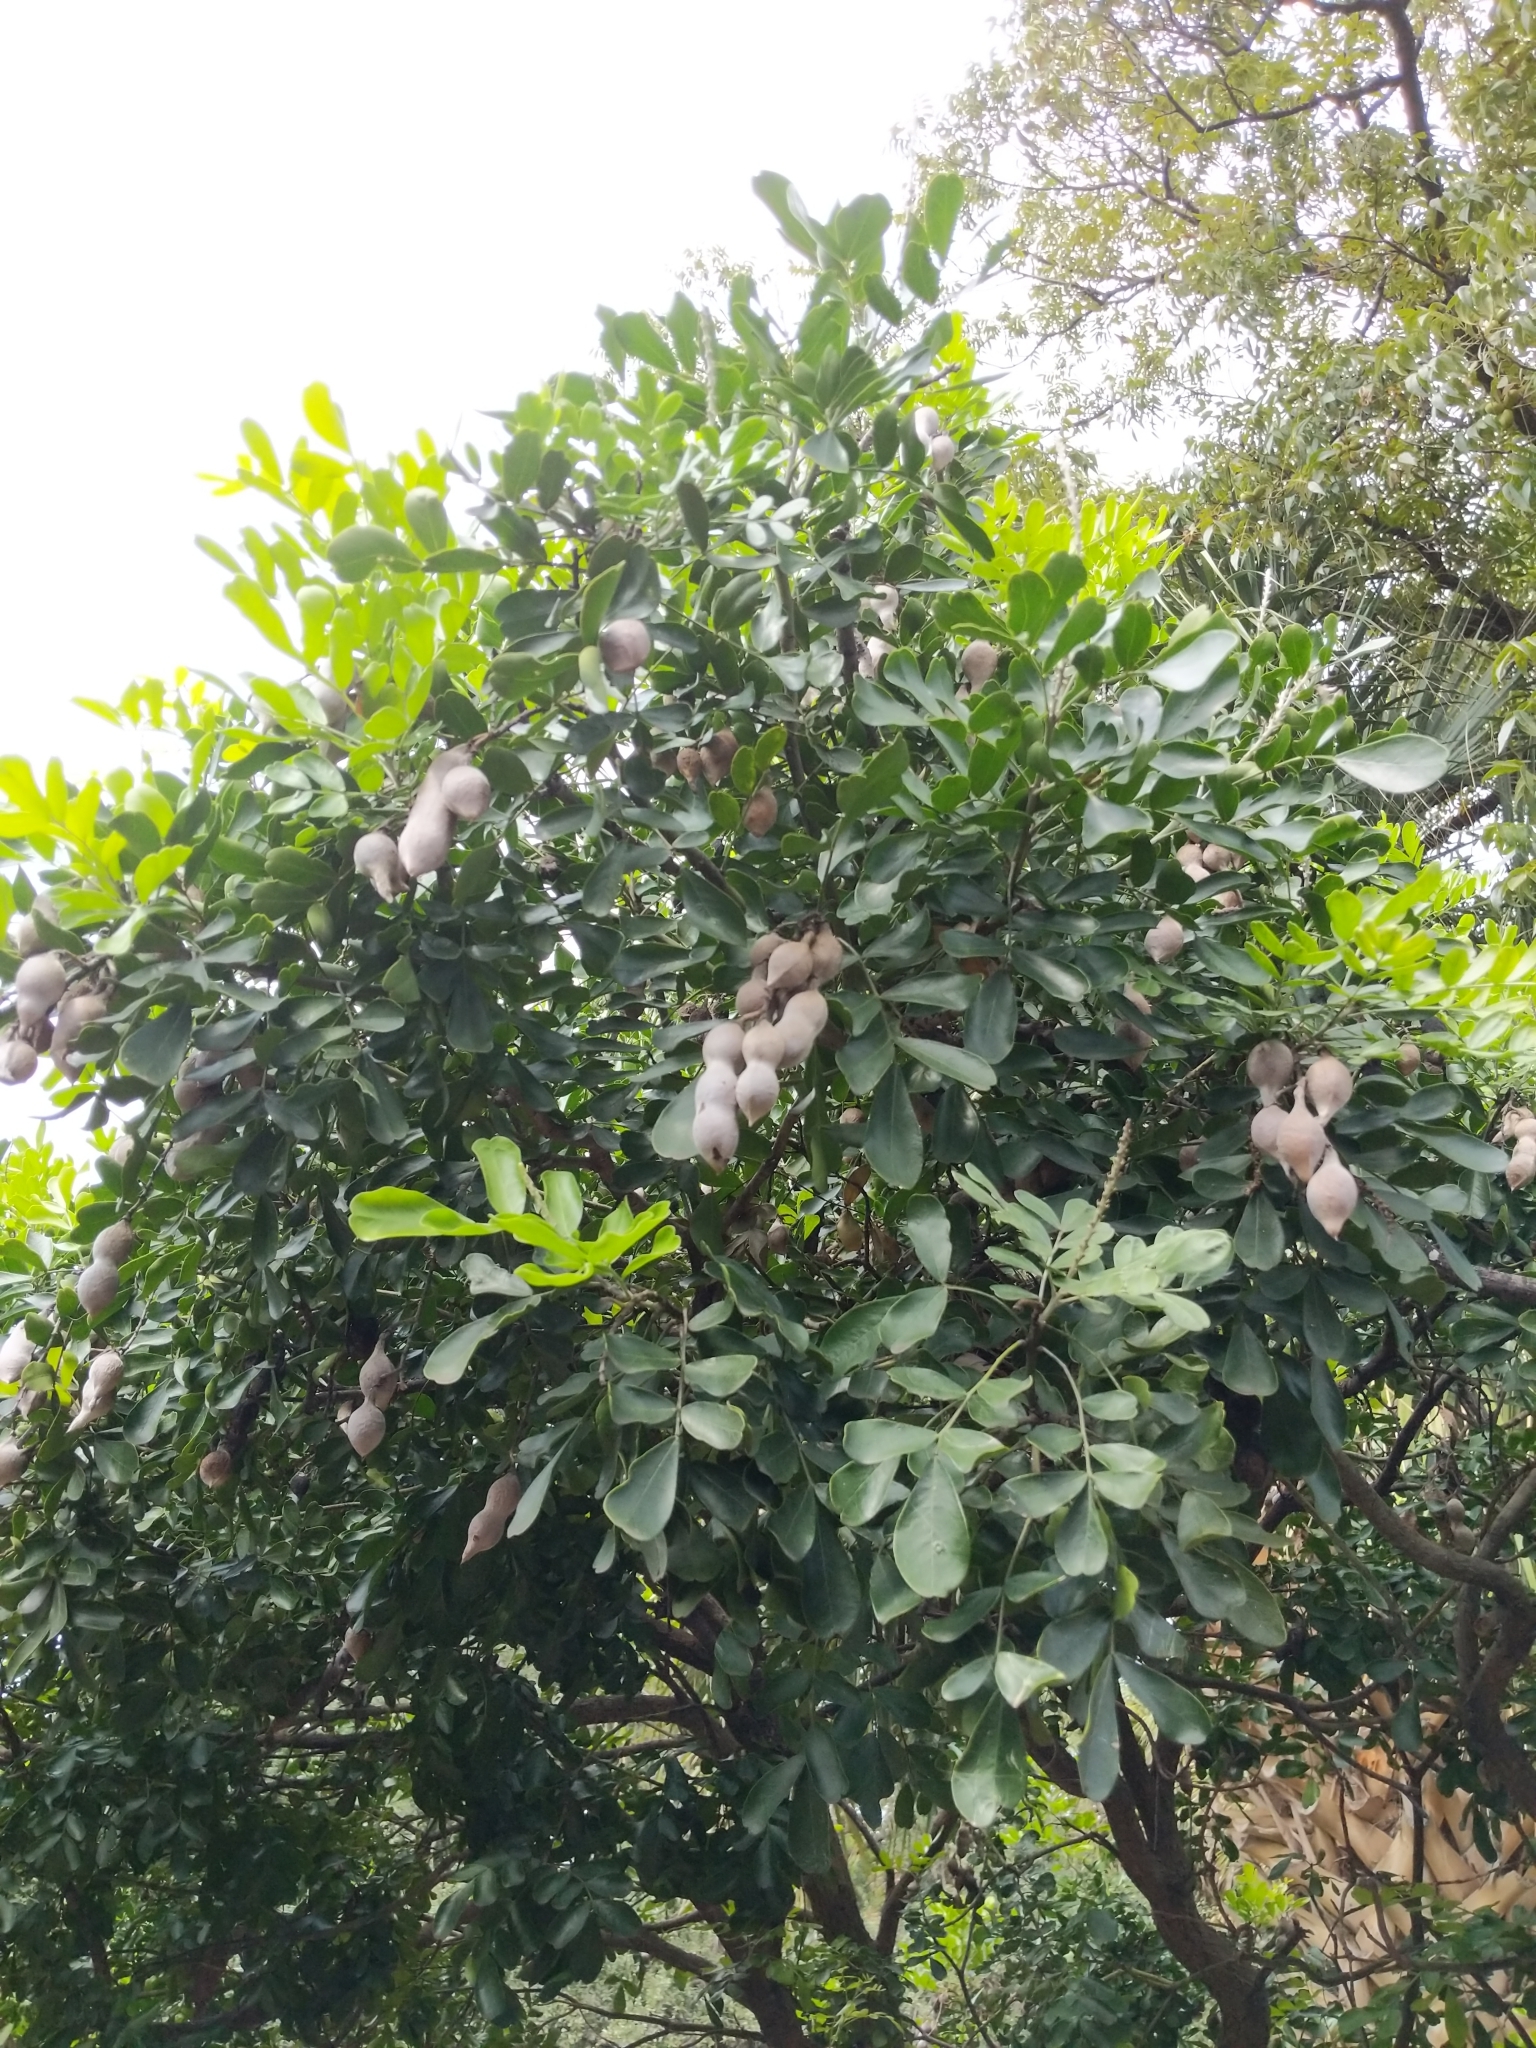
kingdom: Plantae
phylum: Tracheophyta
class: Magnoliopsida
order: Fabales
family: Fabaceae
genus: Dermatophyllum
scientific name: Dermatophyllum secundiflorum
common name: Texas-mountain-laurel
